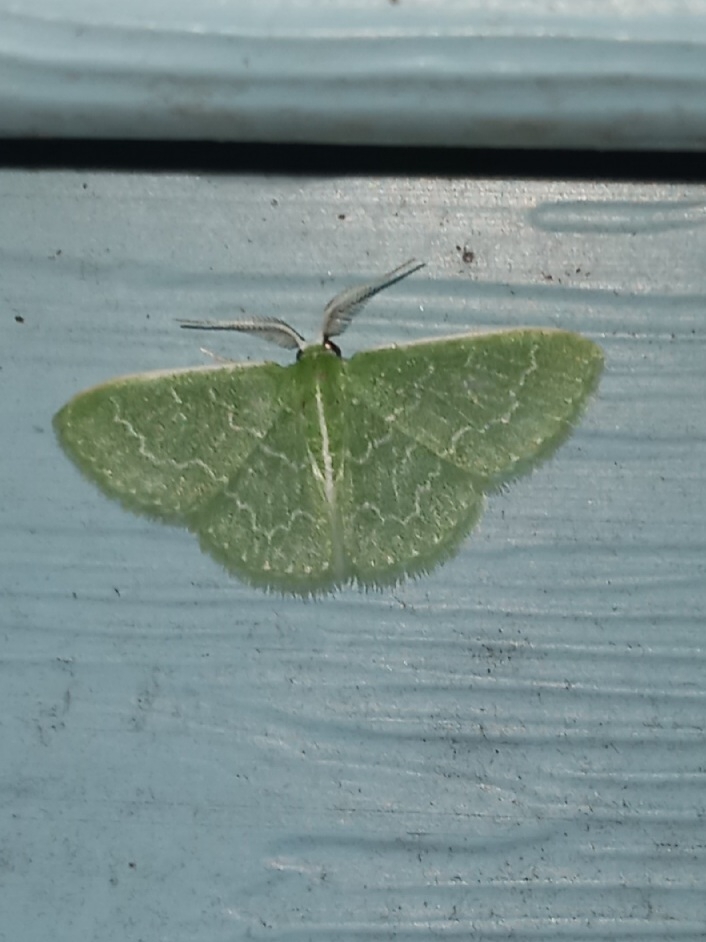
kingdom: Animalia
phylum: Arthropoda
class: Insecta
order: Lepidoptera
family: Geometridae
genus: Synchlora
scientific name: Synchlora frondaria
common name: Southern emerald
